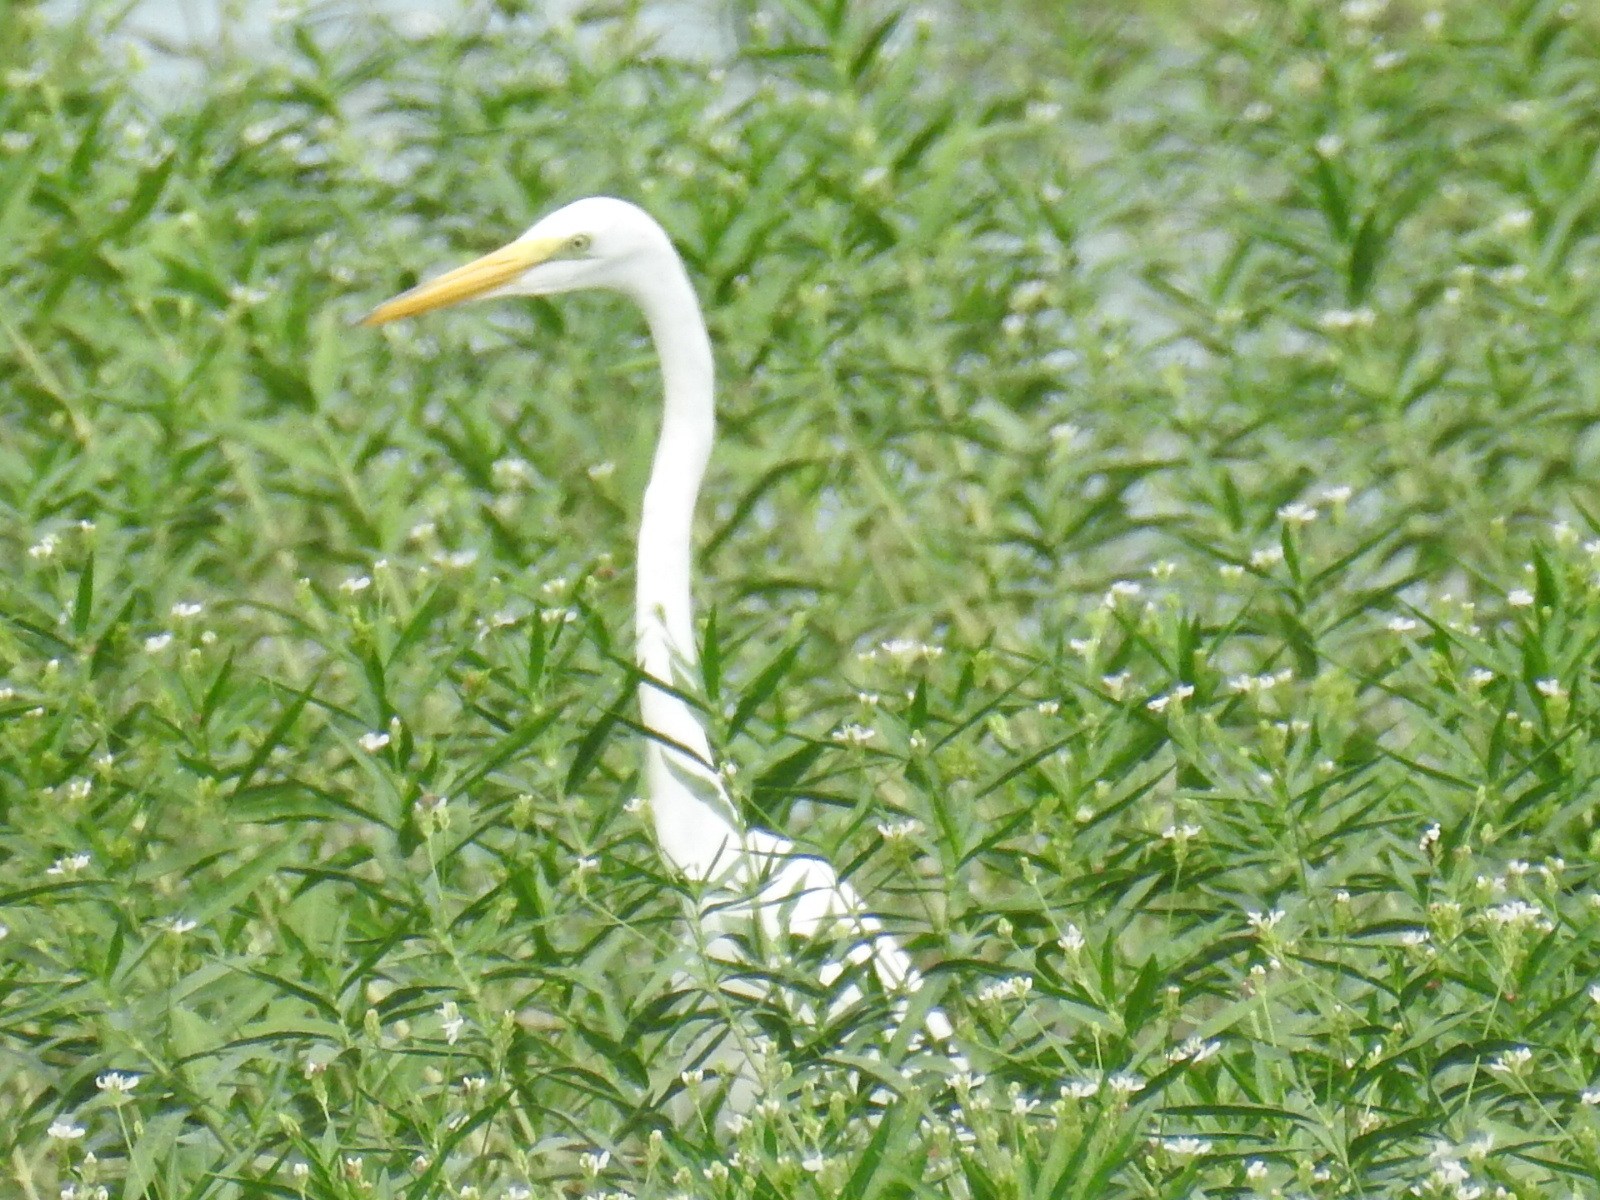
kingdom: Animalia
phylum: Chordata
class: Aves
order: Pelecaniformes
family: Ardeidae
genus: Ardea
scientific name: Ardea alba
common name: Great egret
